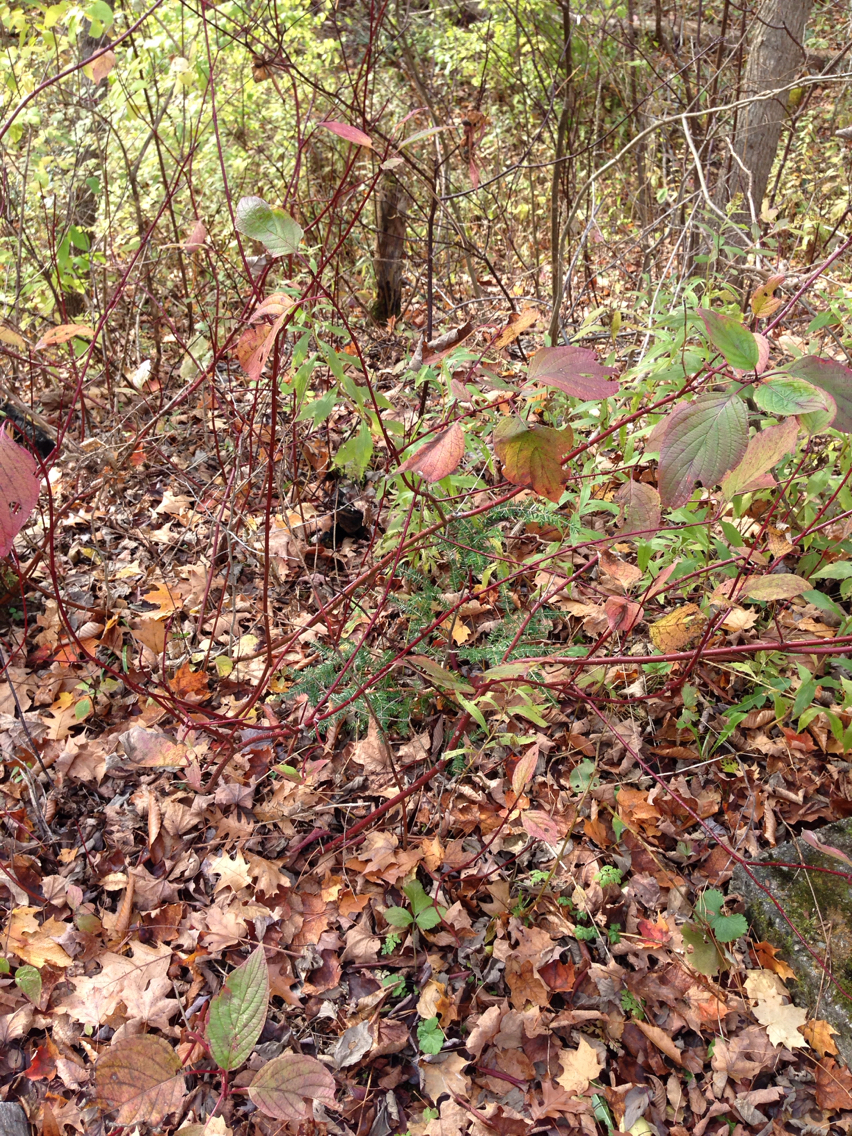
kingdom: Plantae
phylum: Tracheophyta
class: Magnoliopsida
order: Cornales
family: Cornaceae
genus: Cornus
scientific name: Cornus sericea
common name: Red-osier dogwood
